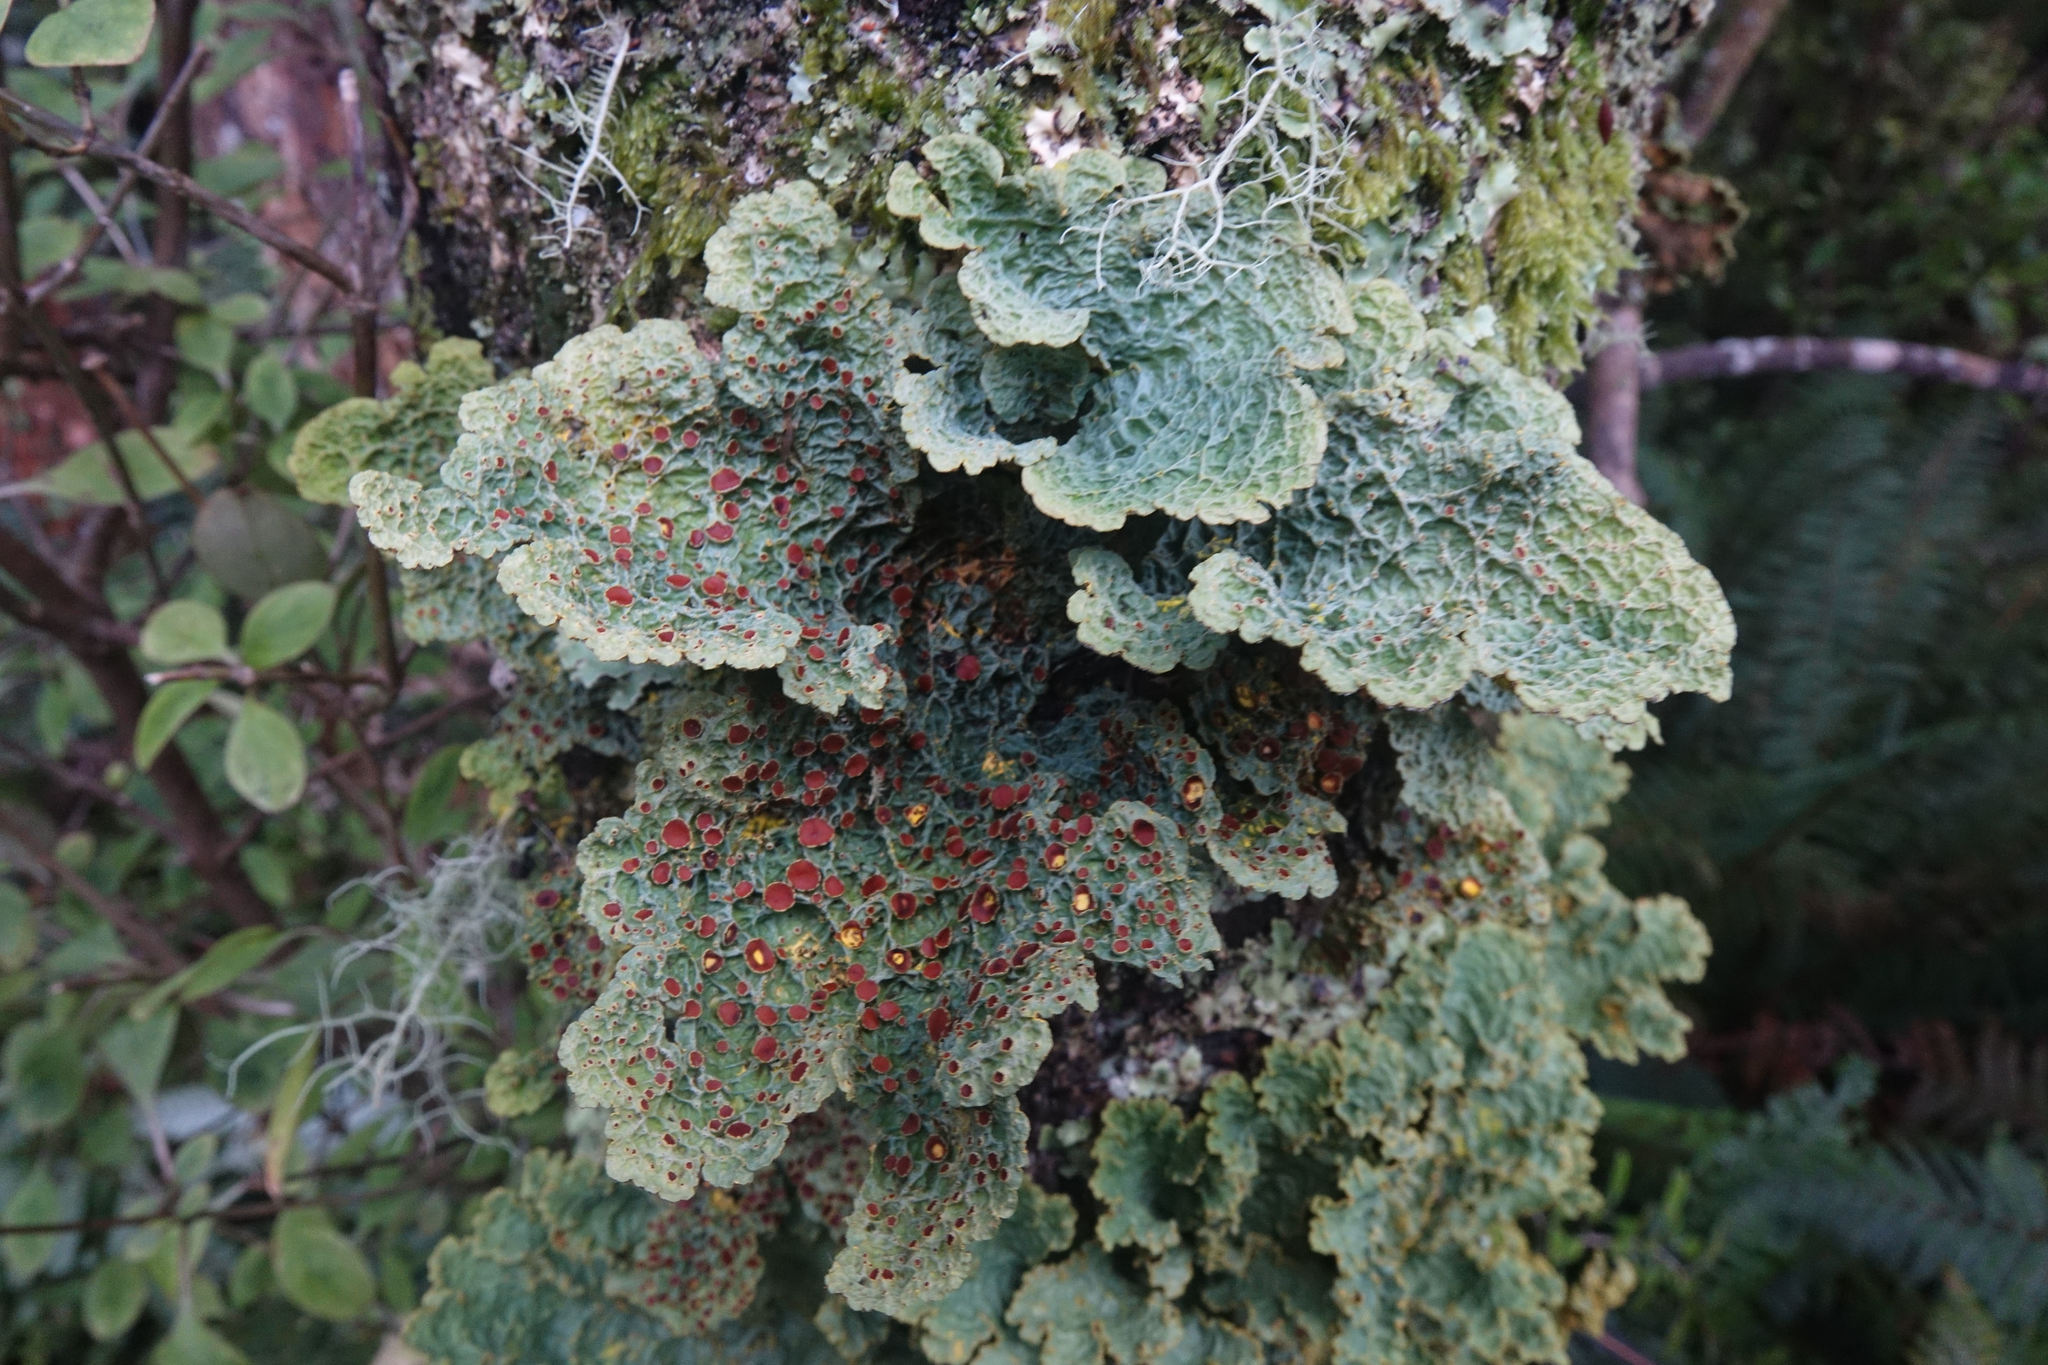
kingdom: Fungi
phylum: Ascomycota
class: Lecanoromycetes
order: Peltigerales
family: Lobariaceae
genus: Yarrumia
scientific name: Yarrumia coronata
